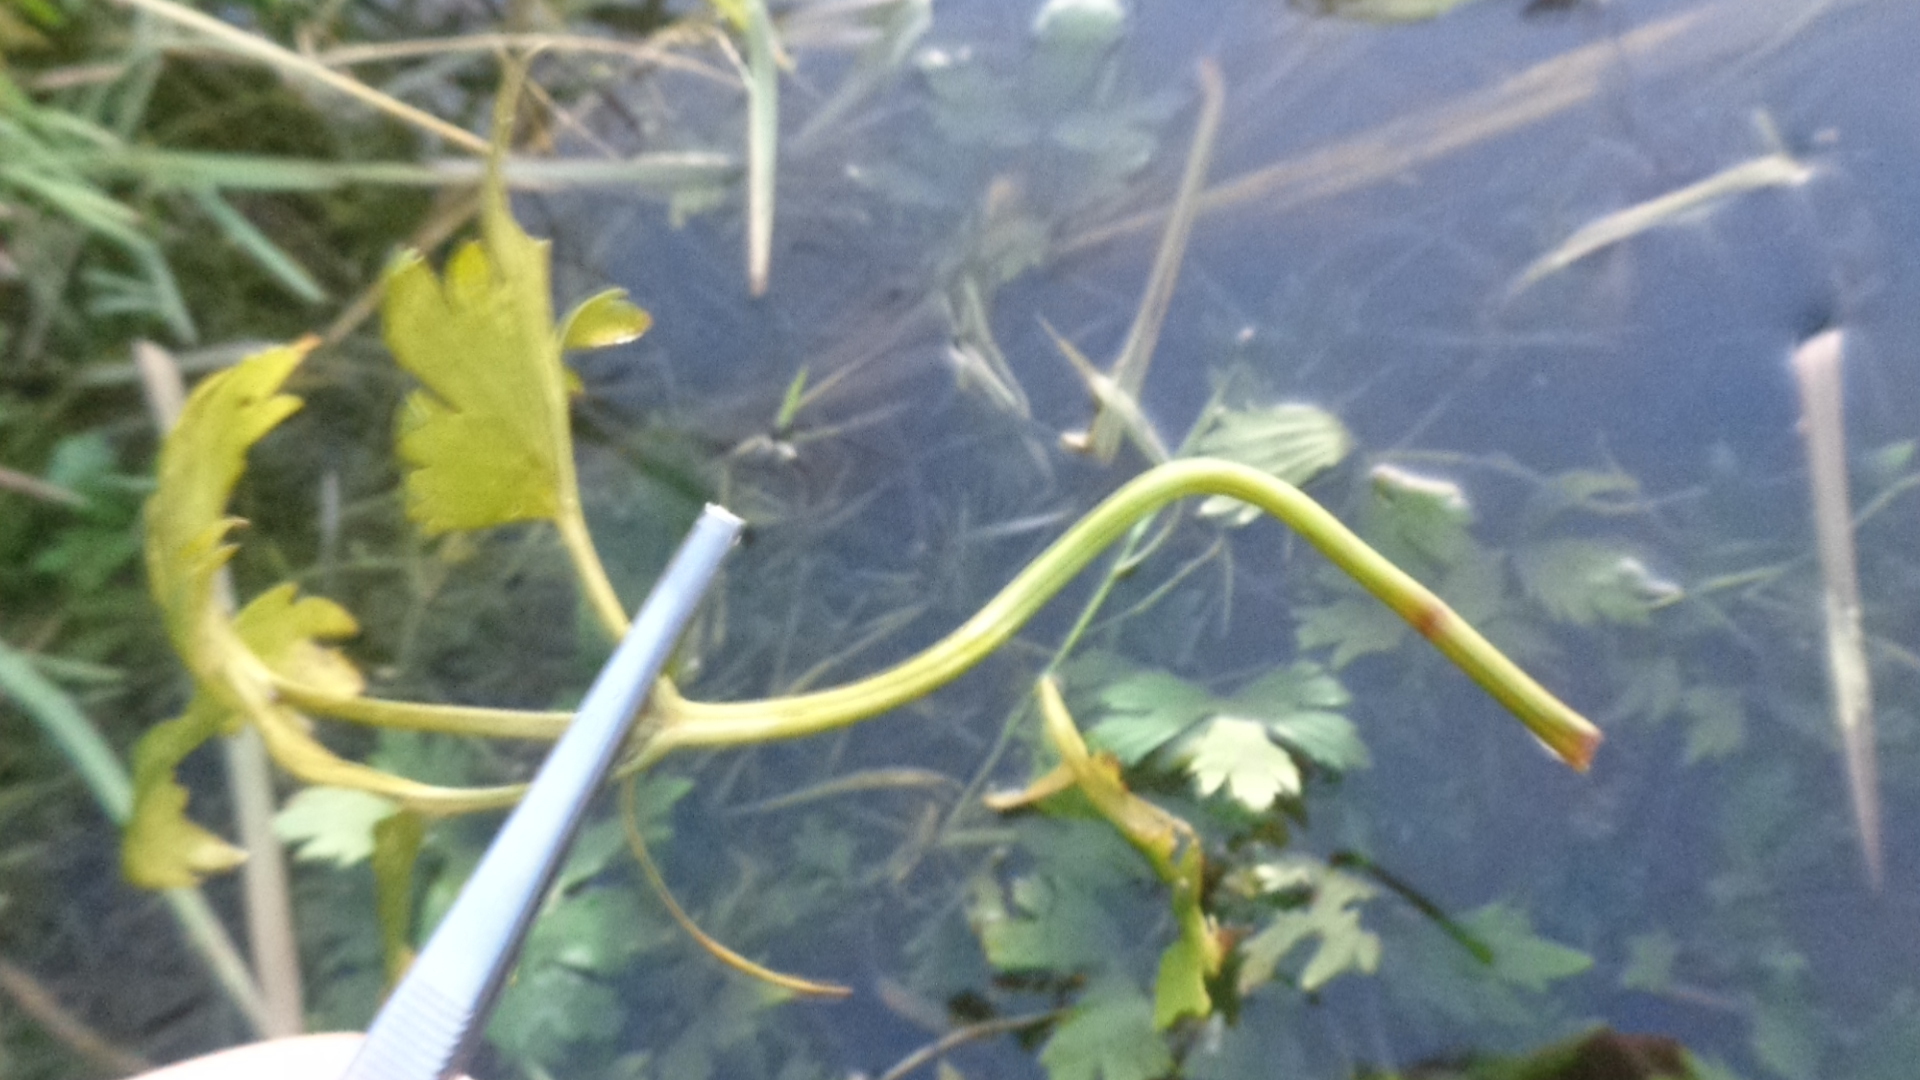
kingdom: Plantae
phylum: Tracheophyta
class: Magnoliopsida
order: Ranunculales
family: Ranunculaceae
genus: Ranunculus
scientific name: Ranunculus repens
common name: Creeping buttercup
